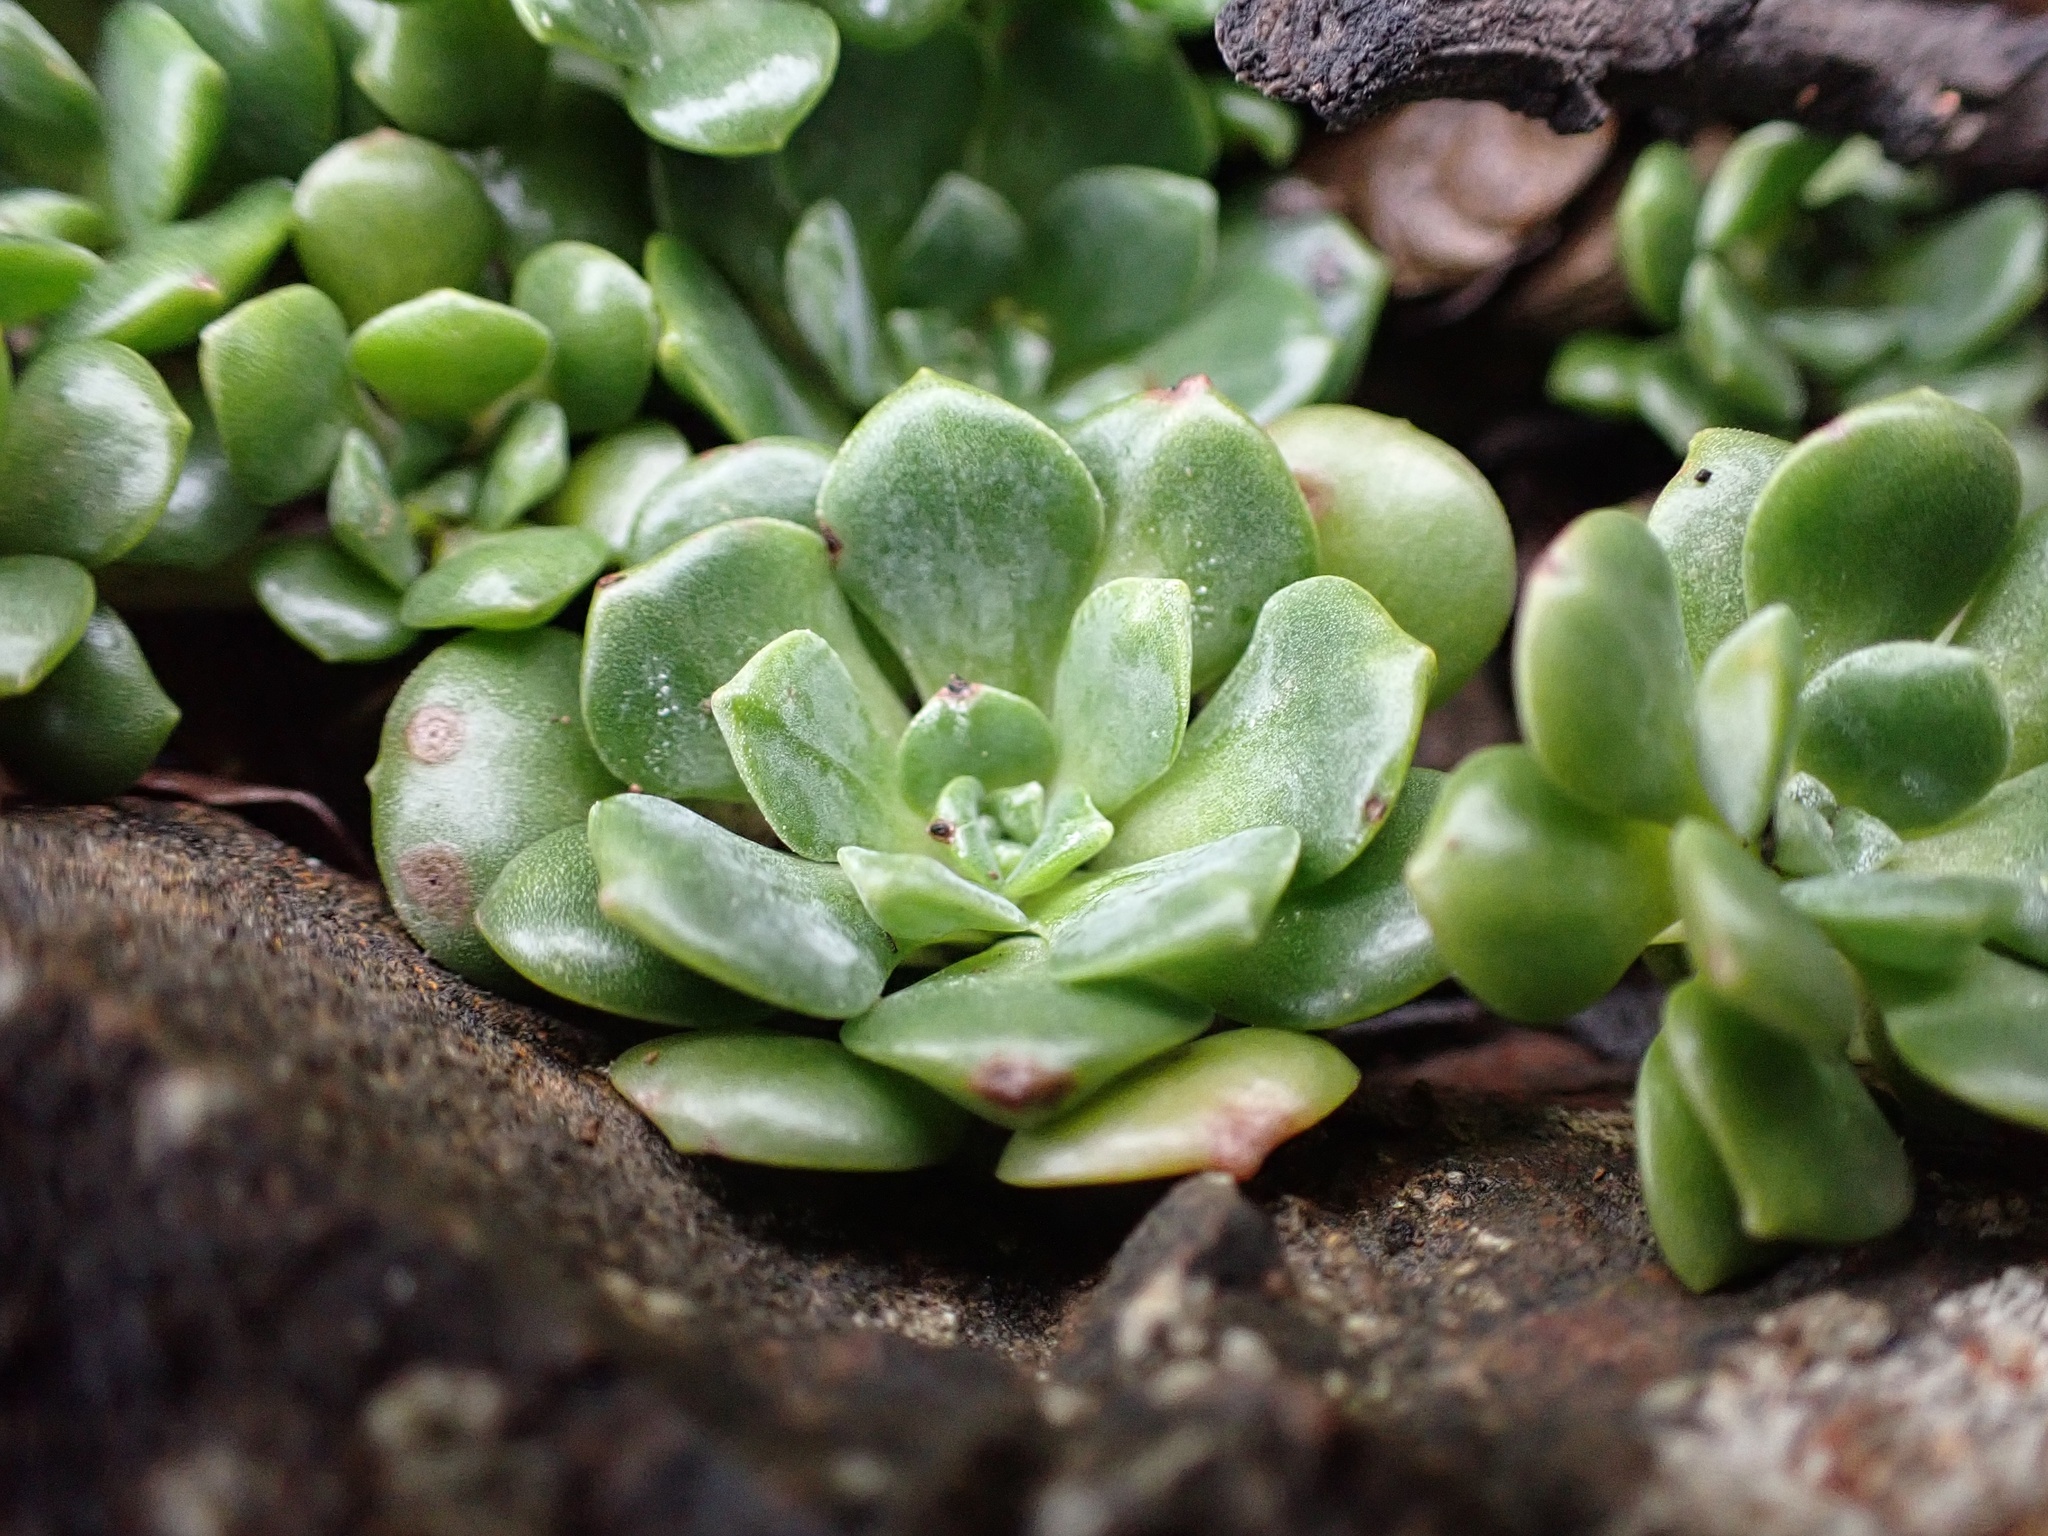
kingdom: Plantae
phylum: Tracheophyta
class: Magnoliopsida
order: Saxifragales
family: Crassulaceae
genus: Sedum
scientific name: Sedum spathulifolium
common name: Colorado stonecrop
